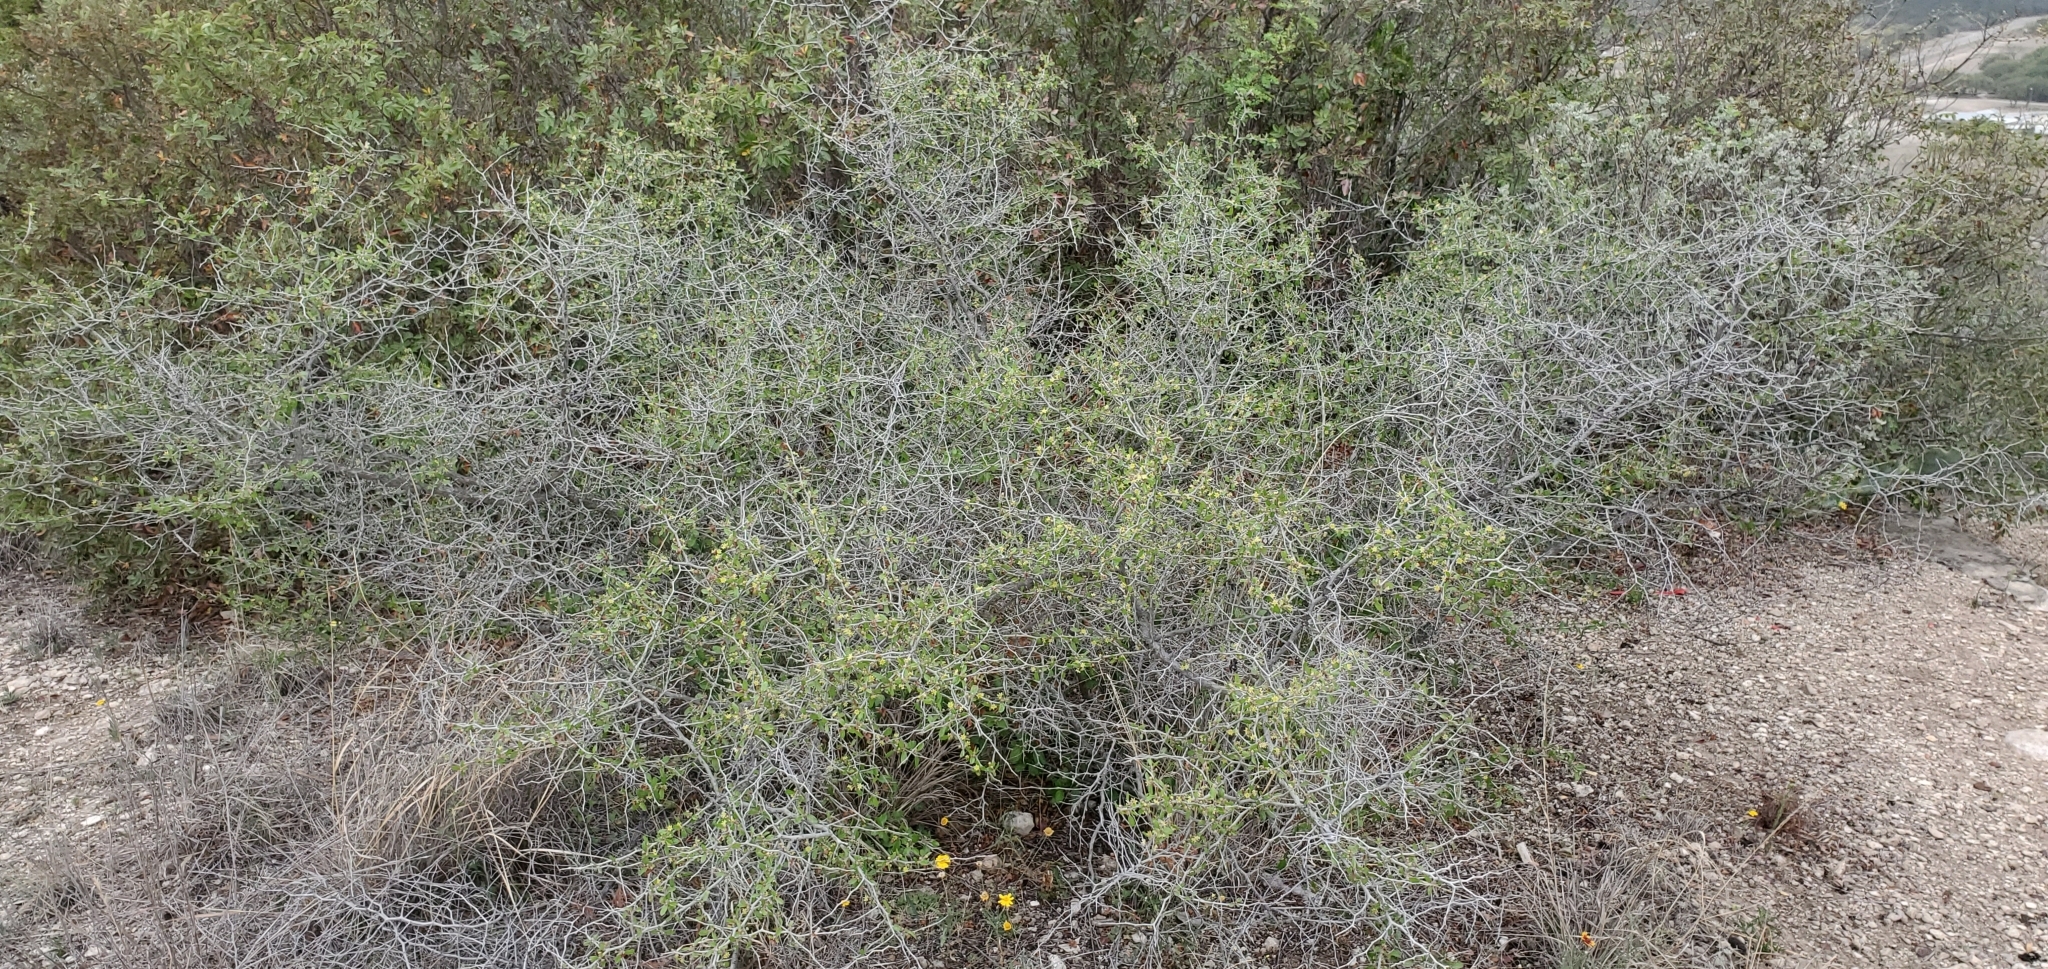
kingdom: Plantae
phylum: Tracheophyta
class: Magnoliopsida
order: Rosales
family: Rhamnaceae
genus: Colubrina
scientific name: Colubrina texensis
